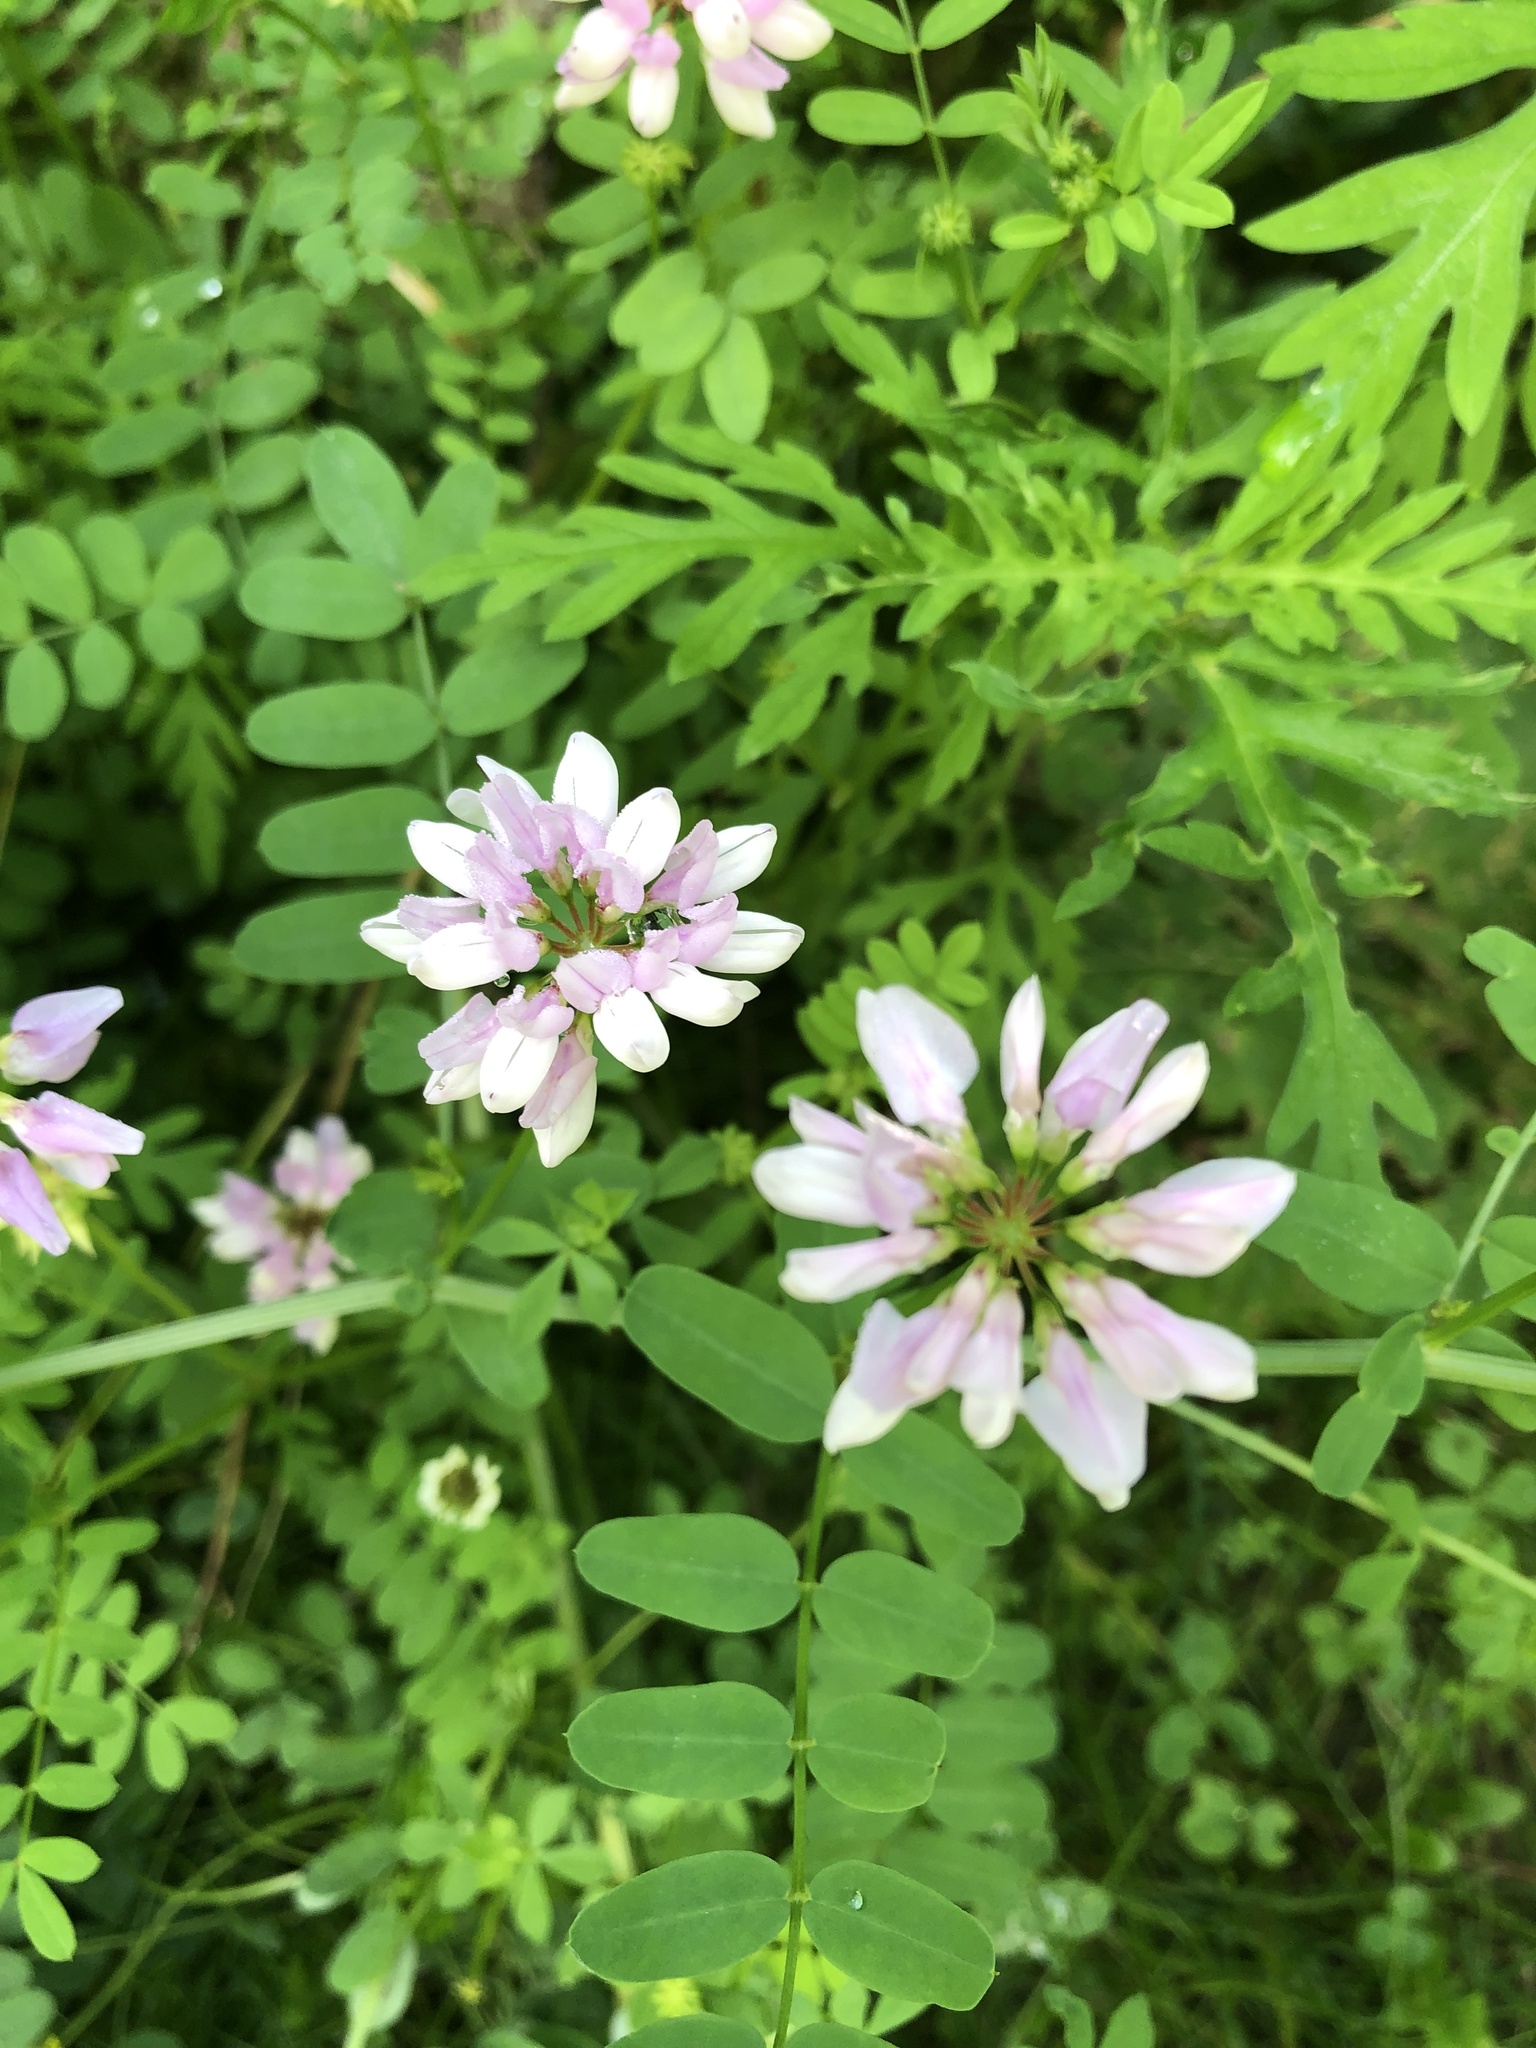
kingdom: Plantae
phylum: Tracheophyta
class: Magnoliopsida
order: Fabales
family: Fabaceae
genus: Coronilla
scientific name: Coronilla varia
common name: Crownvetch
